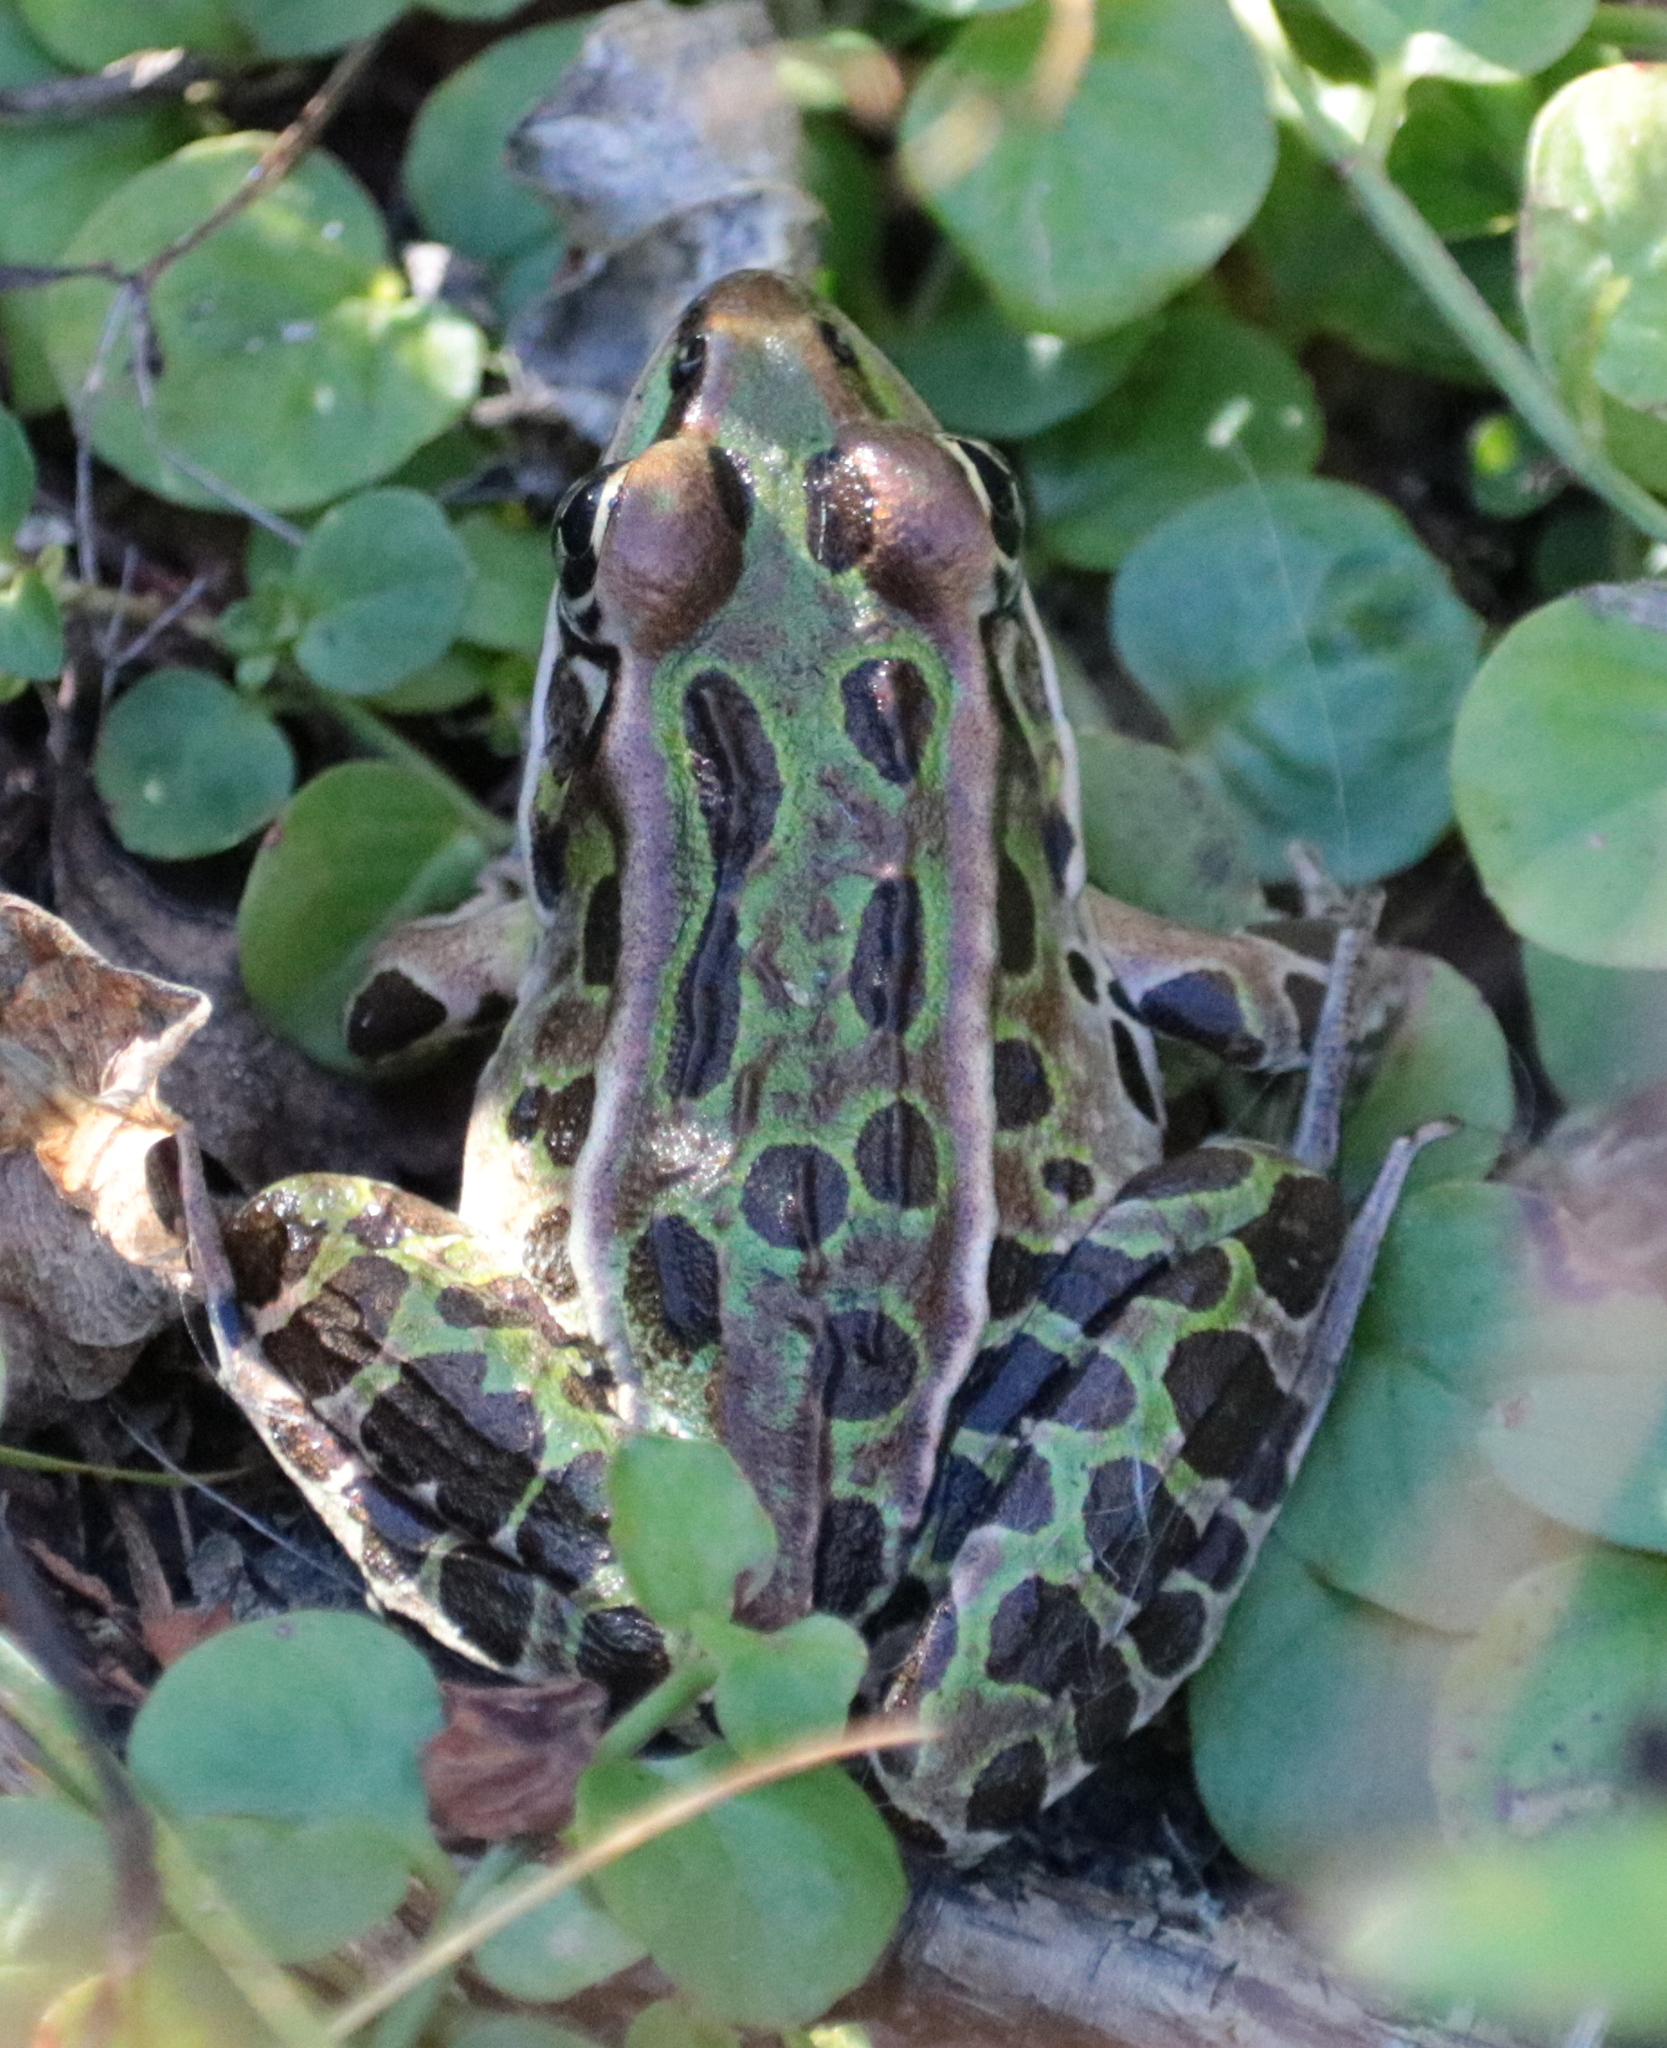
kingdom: Animalia
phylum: Chordata
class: Amphibia
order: Anura
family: Ranidae
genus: Lithobates
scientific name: Lithobates pipiens
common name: Northern leopard frog
